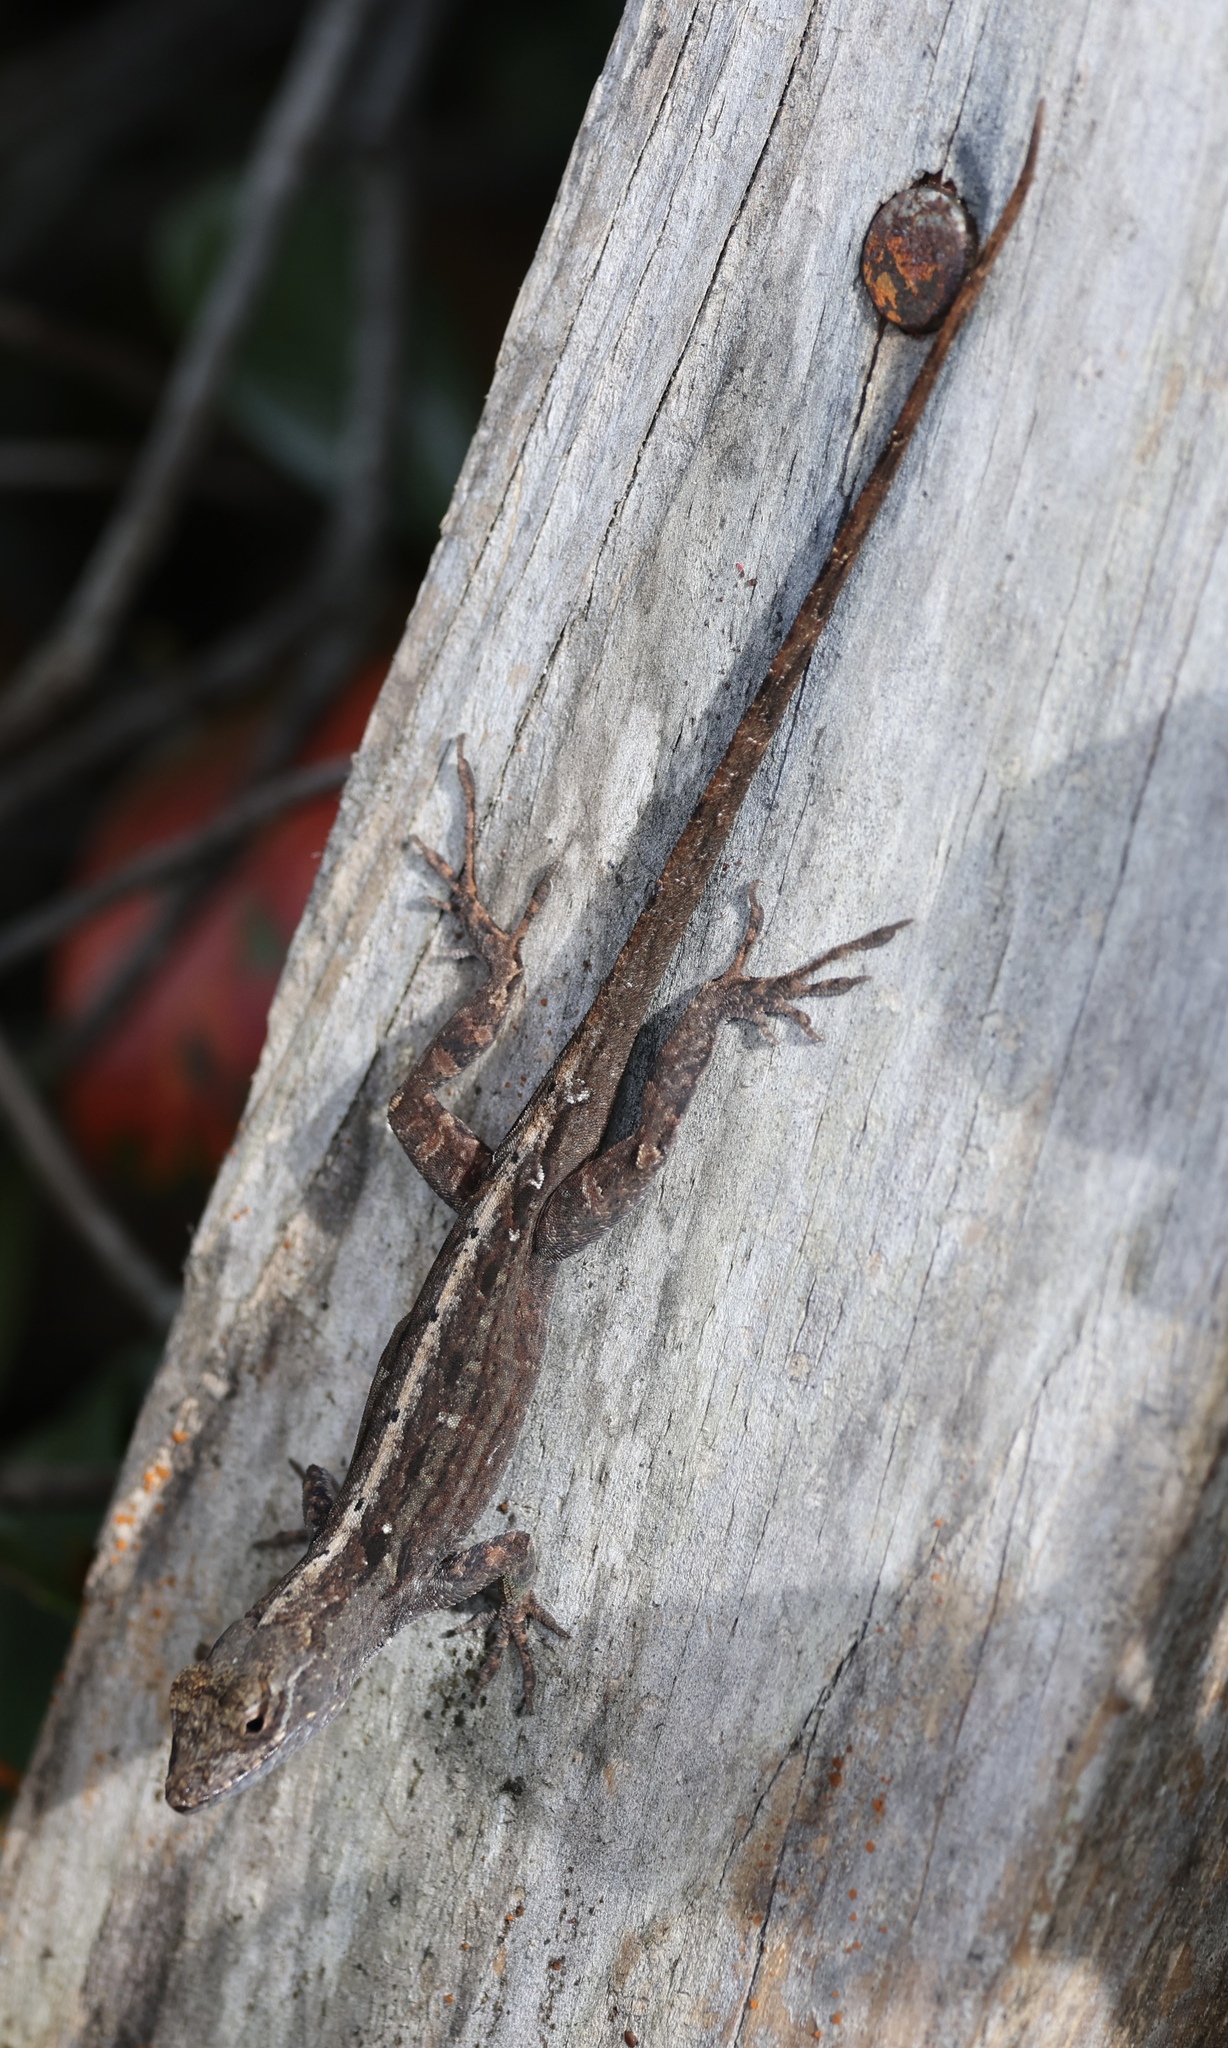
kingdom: Animalia
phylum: Chordata
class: Squamata
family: Dactyloidae
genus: Anolis
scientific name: Anolis sagrei
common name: Brown anole
